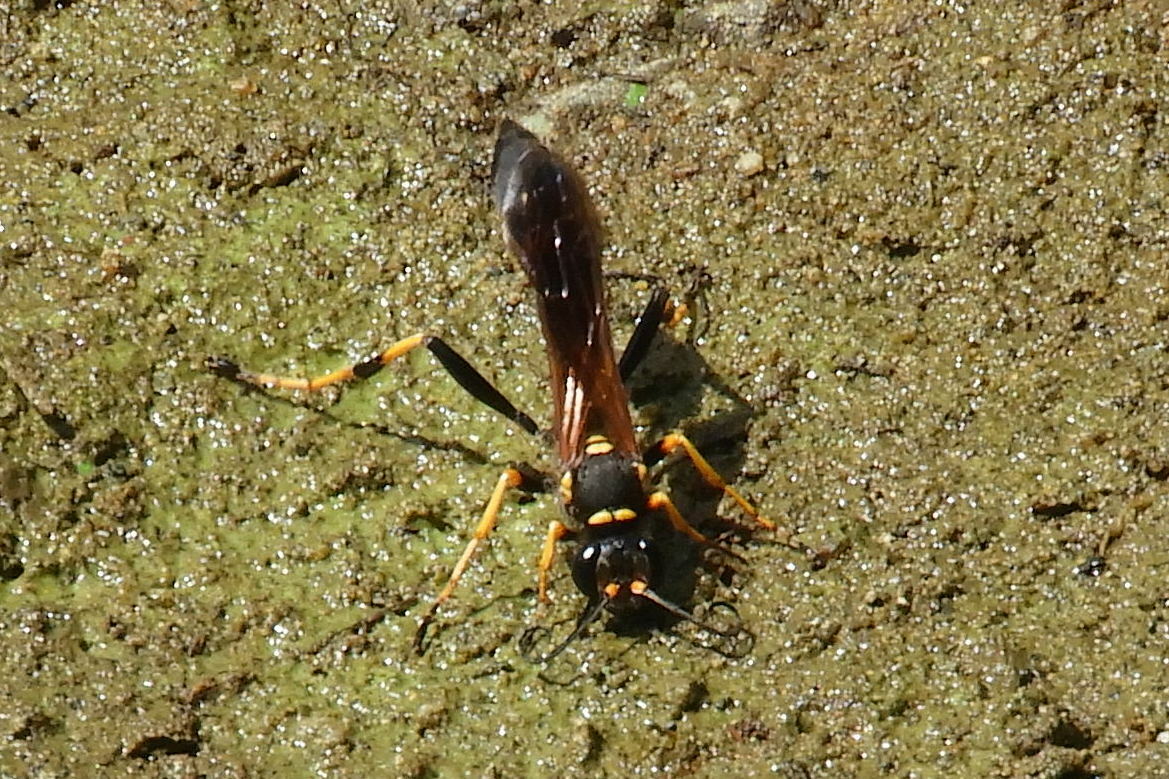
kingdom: Animalia
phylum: Arthropoda
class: Insecta
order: Hymenoptera
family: Sphecidae
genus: Sceliphron
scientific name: Sceliphron caementarium
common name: Mud dauber
